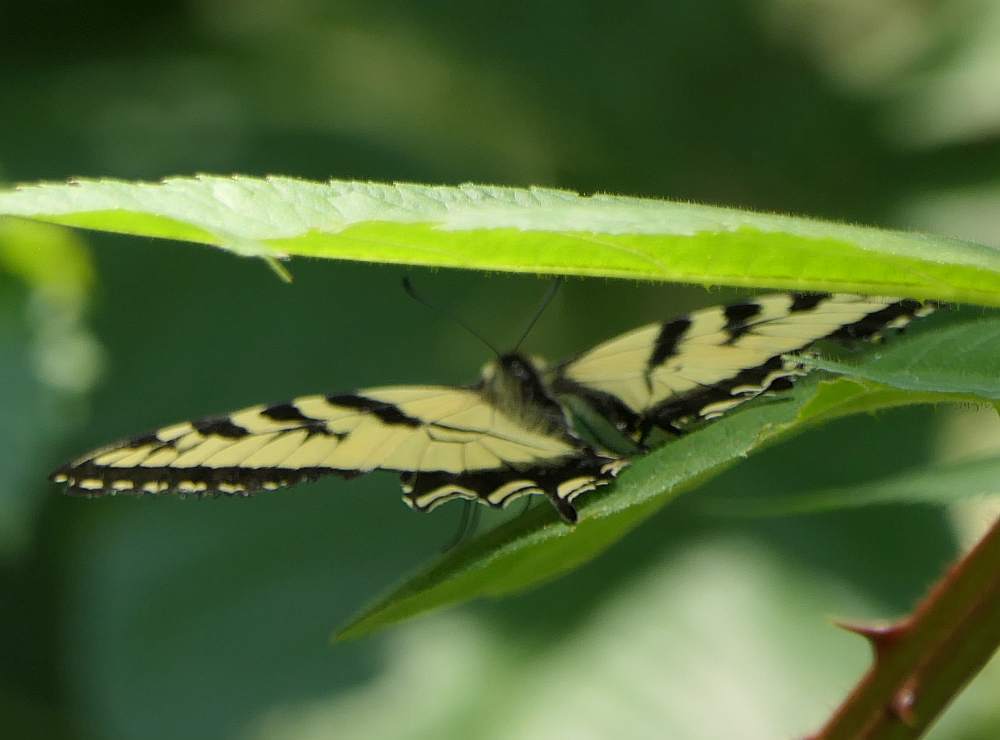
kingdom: Animalia
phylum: Arthropoda
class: Insecta
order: Lepidoptera
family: Papilionidae
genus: Papilio
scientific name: Papilio canadensis
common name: Canadian tiger swallowtail
